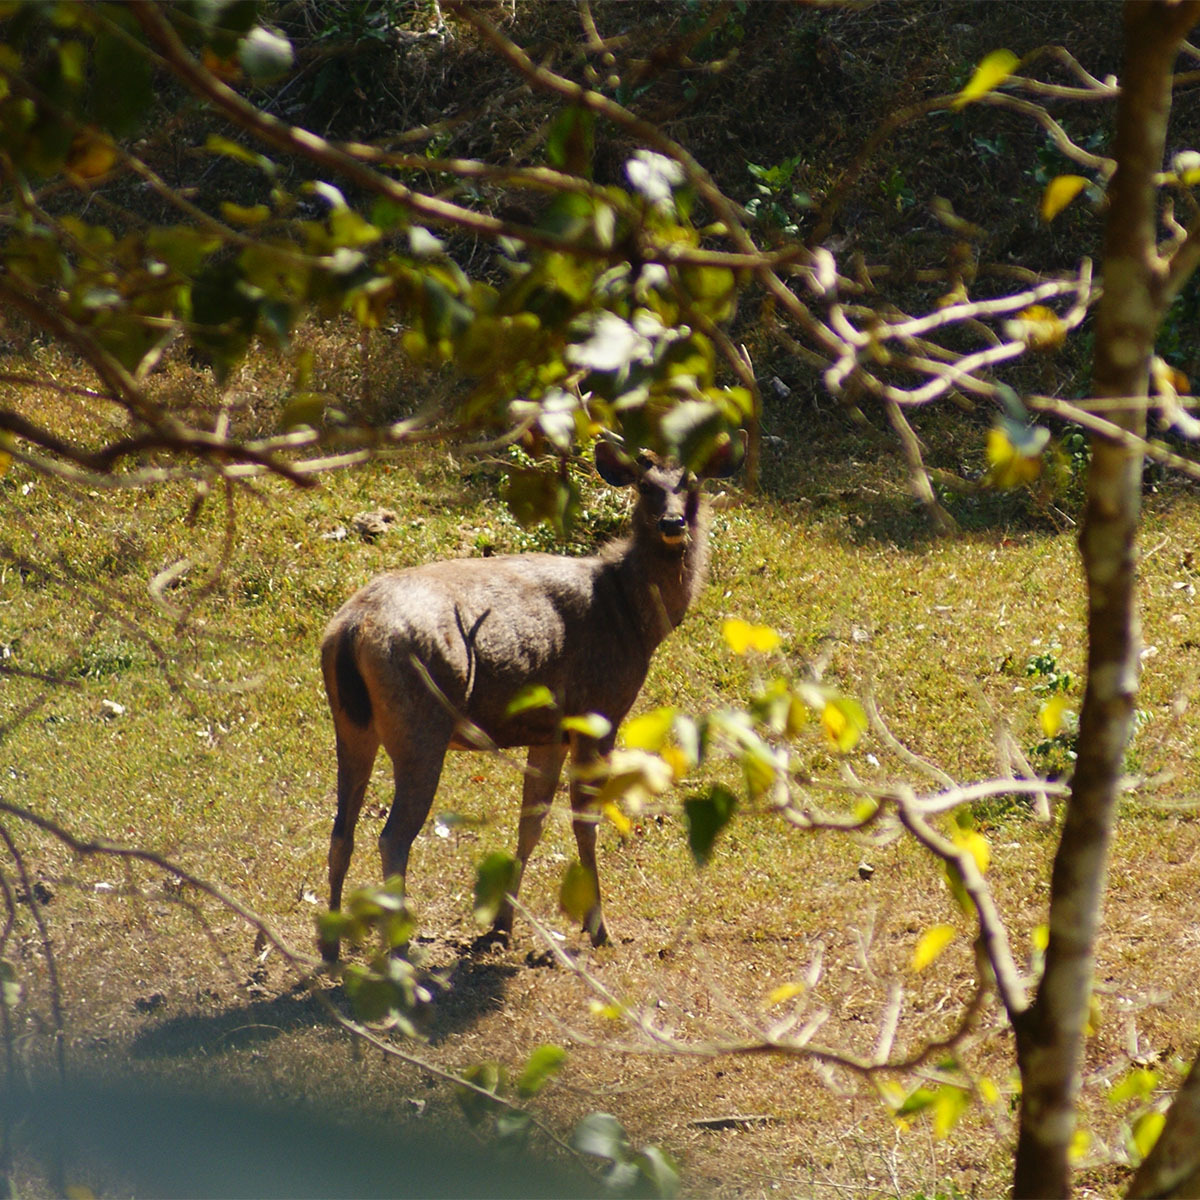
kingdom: Animalia
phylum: Chordata
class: Mammalia
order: Artiodactyla
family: Cervidae
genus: Rusa
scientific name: Rusa unicolor
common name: Sambar
